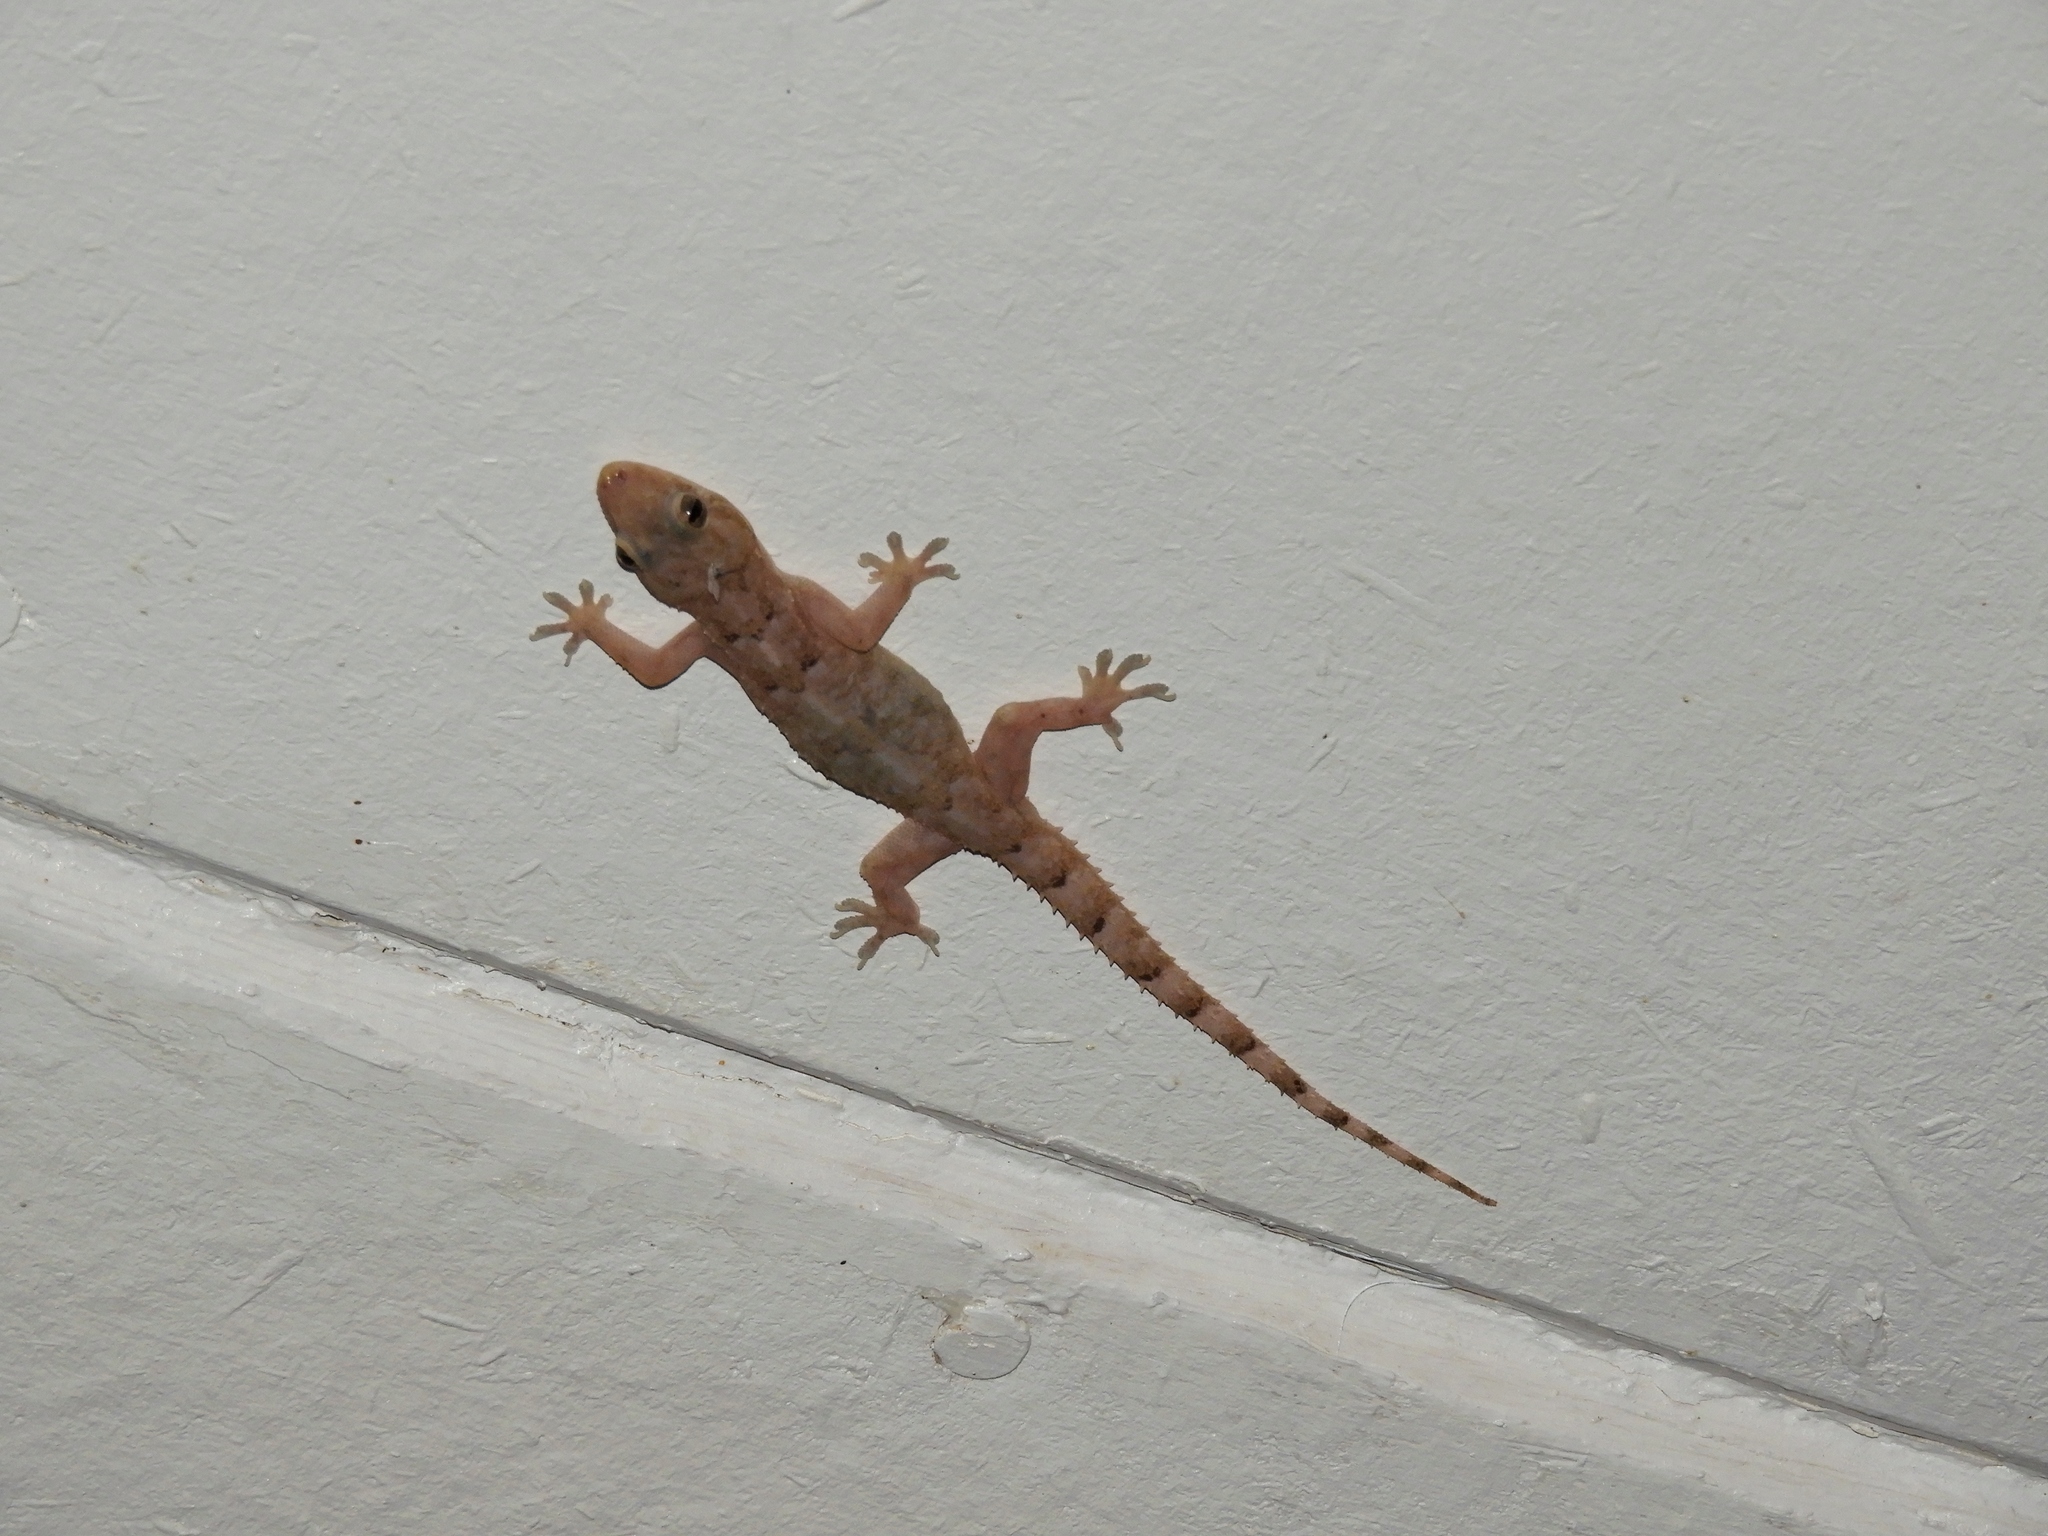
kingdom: Animalia
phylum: Chordata
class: Squamata
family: Gekkonidae
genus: Hemidactylus
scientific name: Hemidactylus mabouia
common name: House gecko
